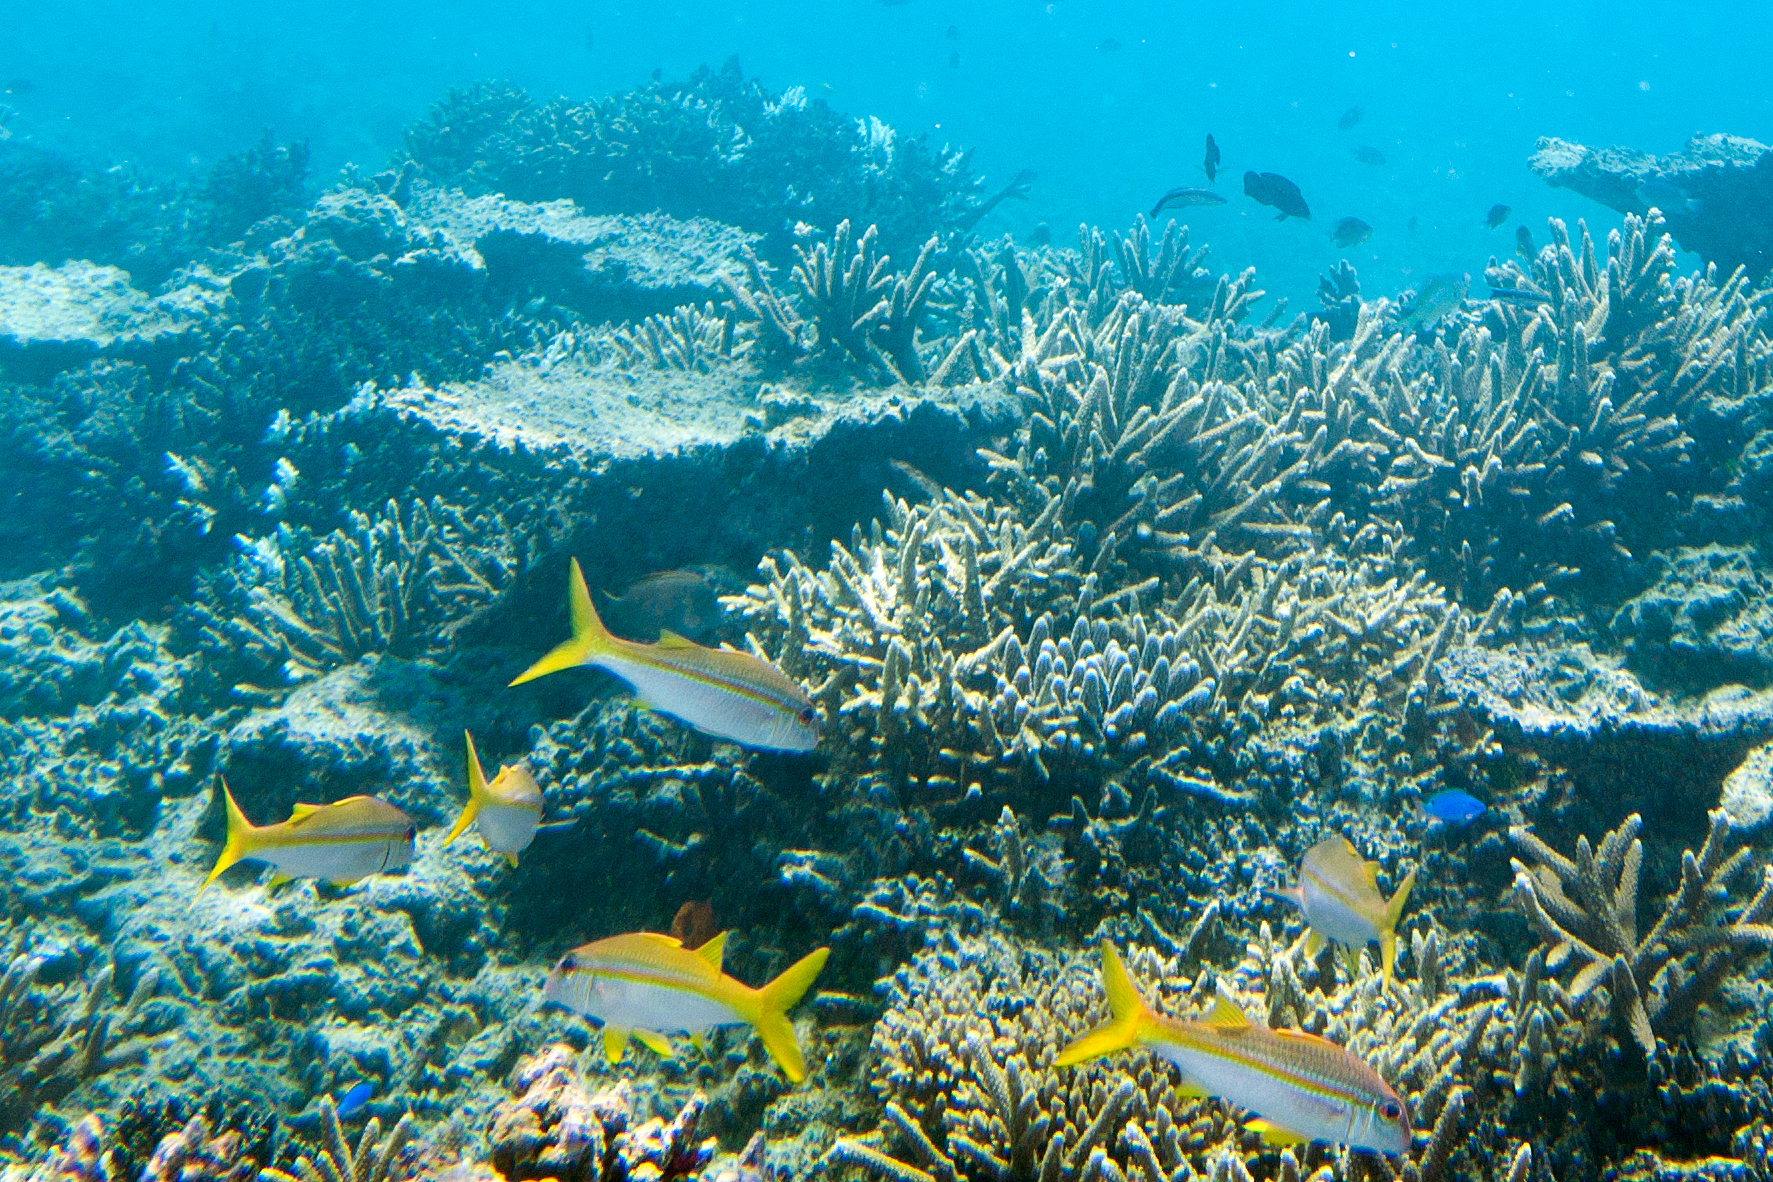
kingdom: Animalia
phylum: Chordata
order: Perciformes
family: Mullidae
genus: Mulloidichthys
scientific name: Mulloidichthys vanicolensis
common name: Yellowfin goatfish
